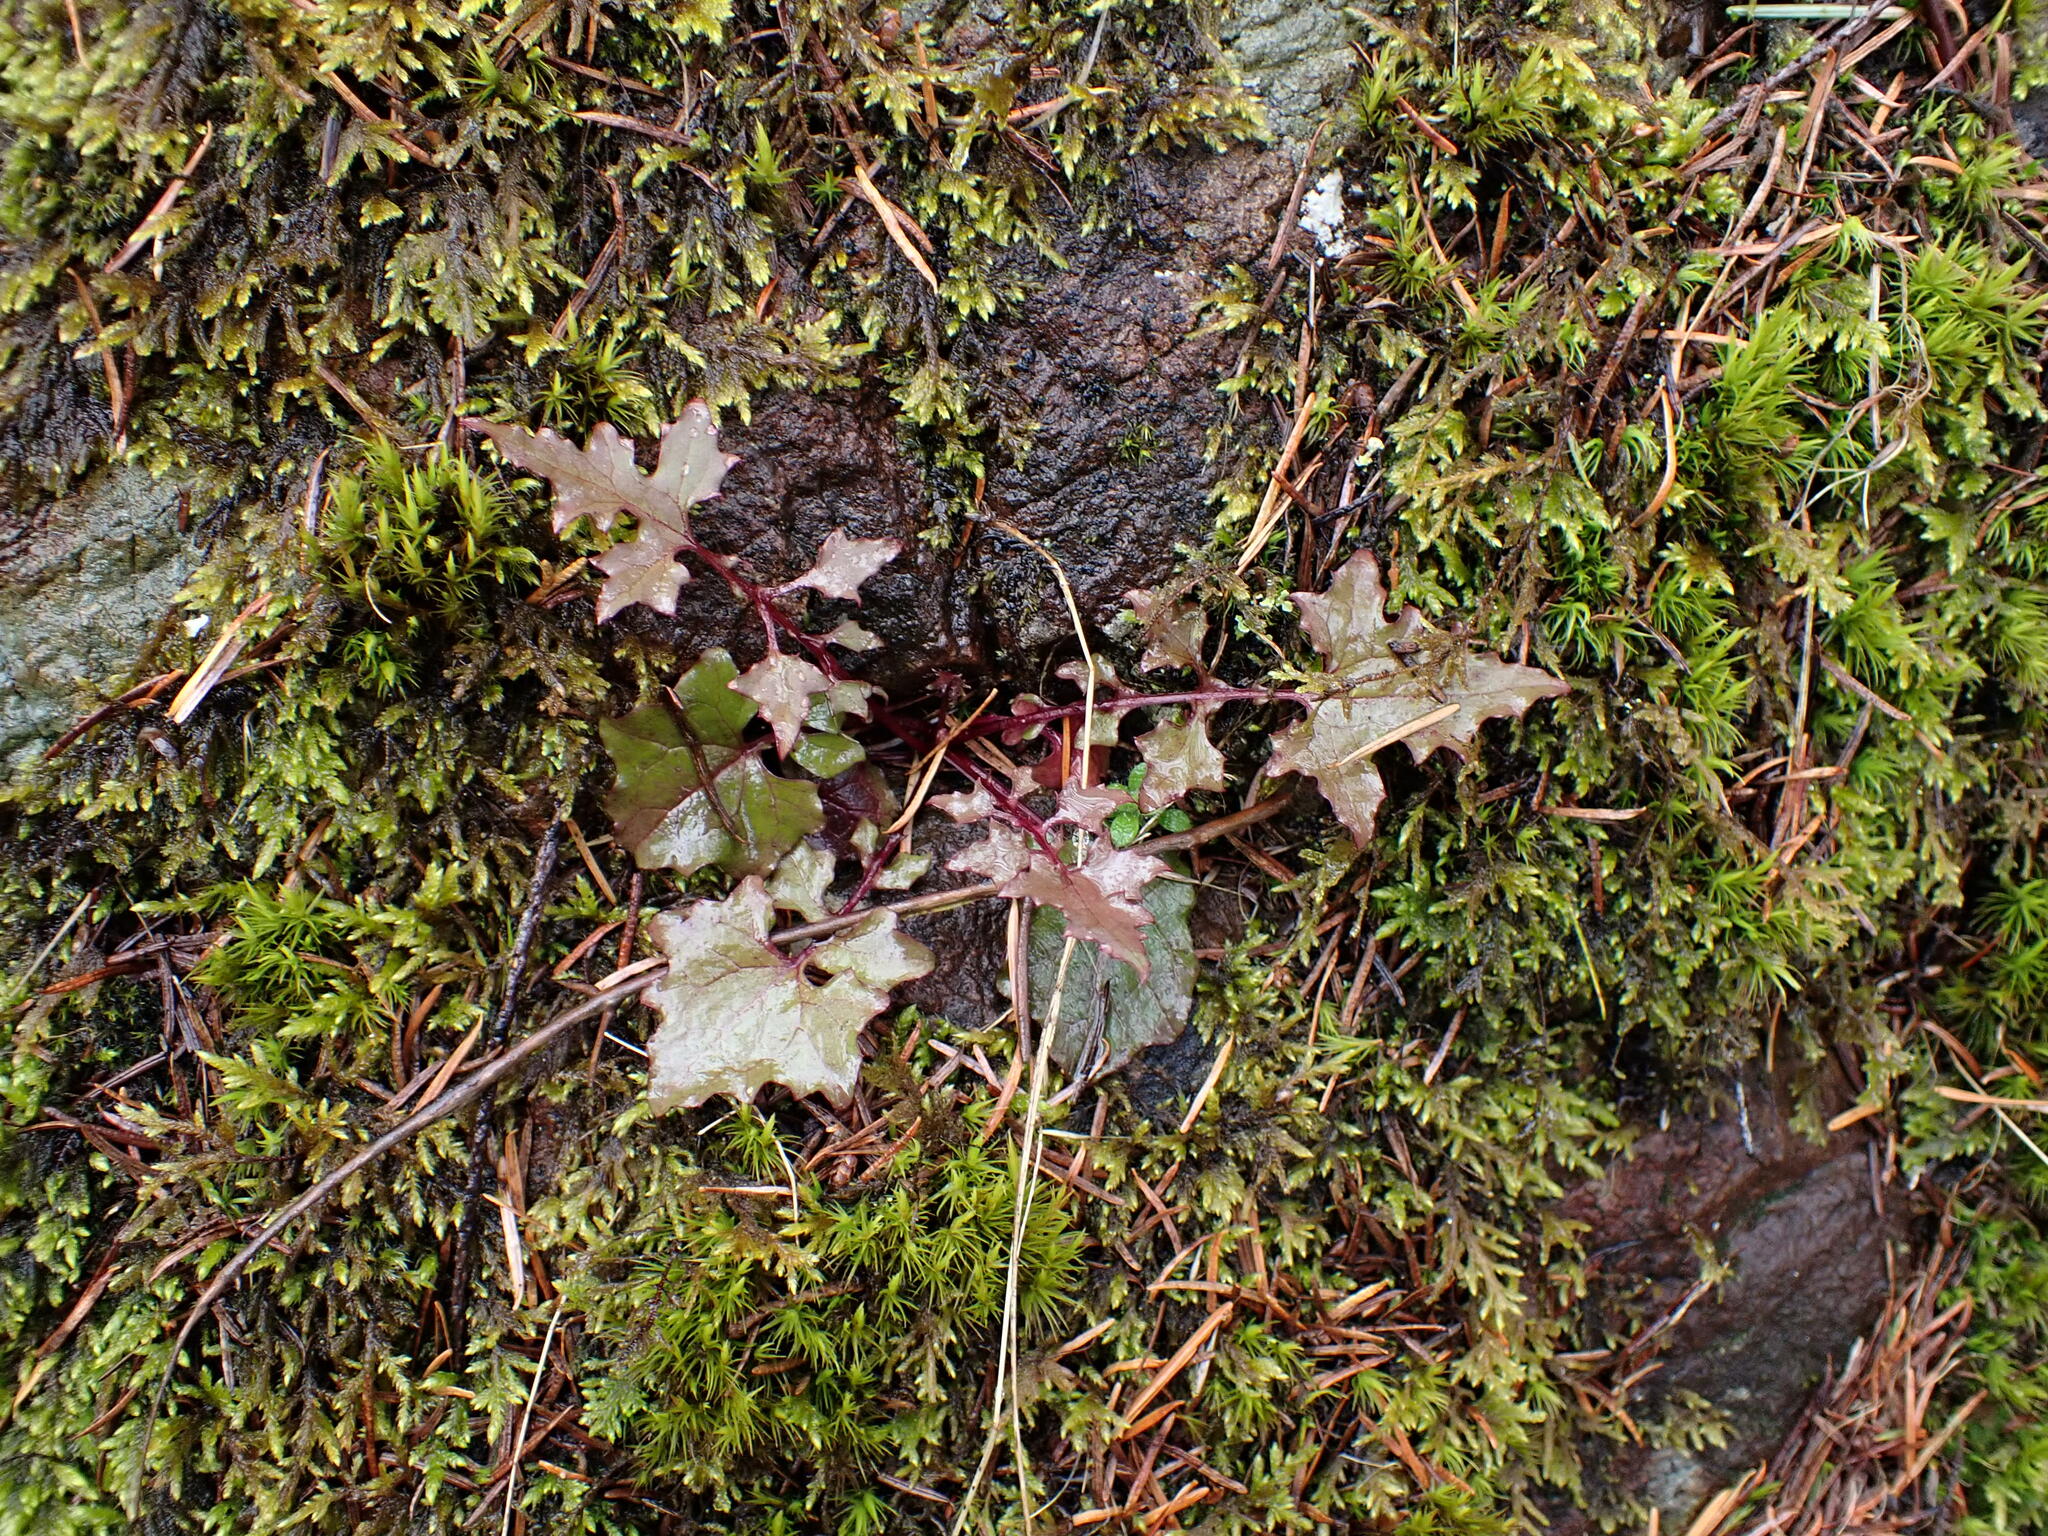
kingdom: Plantae
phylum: Tracheophyta
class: Magnoliopsida
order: Asterales
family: Asteraceae
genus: Mycelis
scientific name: Mycelis muralis
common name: Wall lettuce
